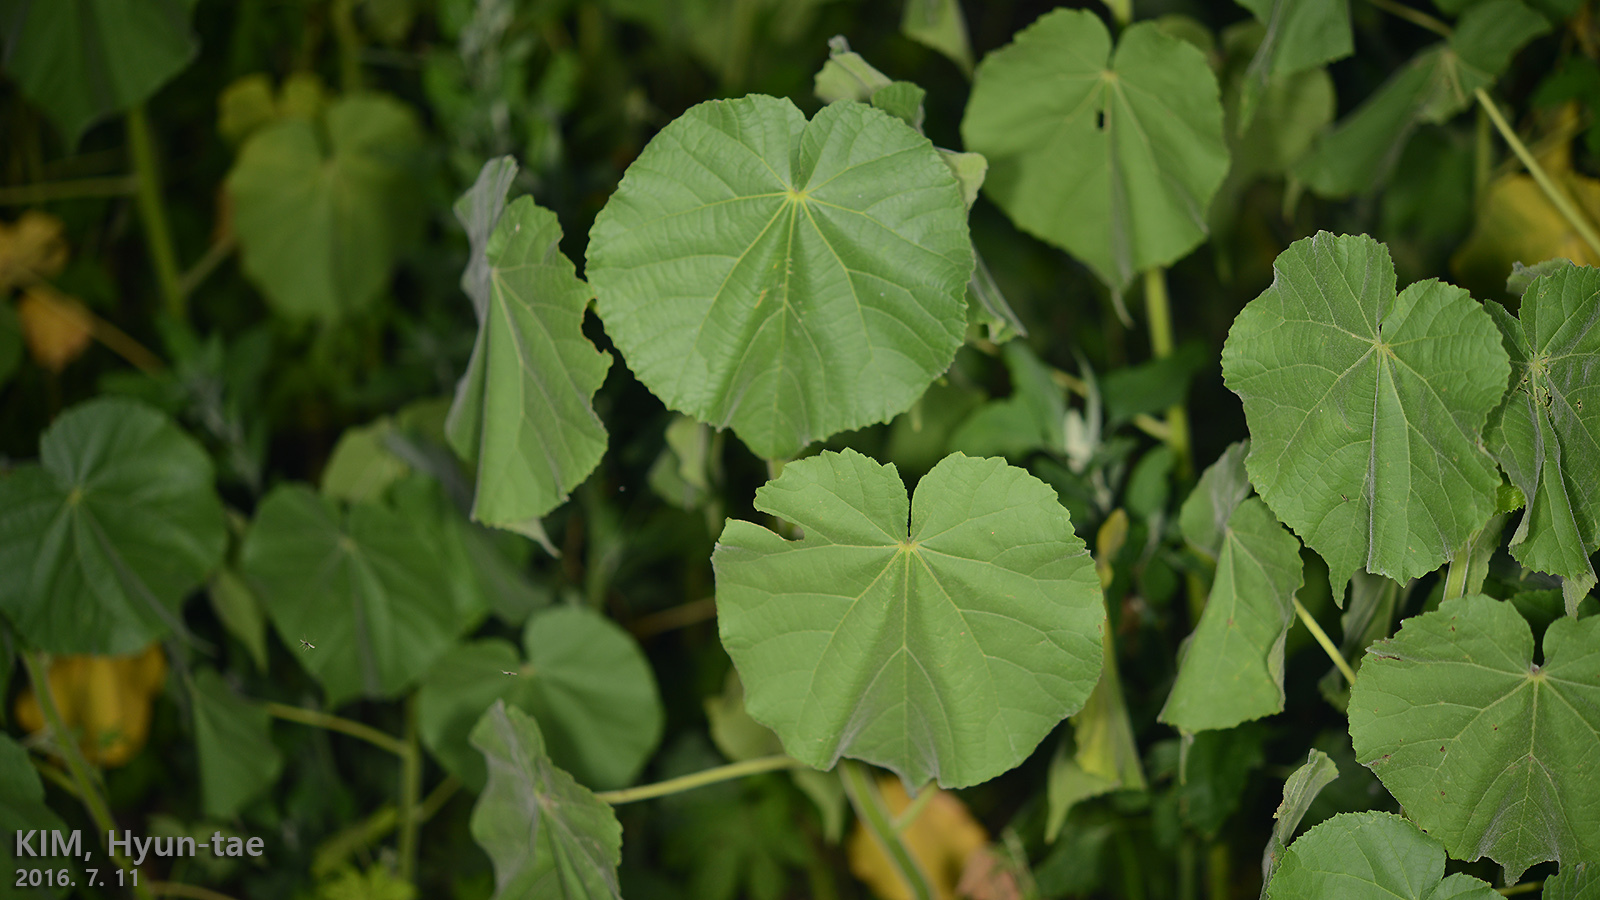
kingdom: Plantae
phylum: Tracheophyta
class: Magnoliopsida
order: Malvales
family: Malvaceae
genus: Abutilon
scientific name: Abutilon theophrasti
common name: Velvetleaf
